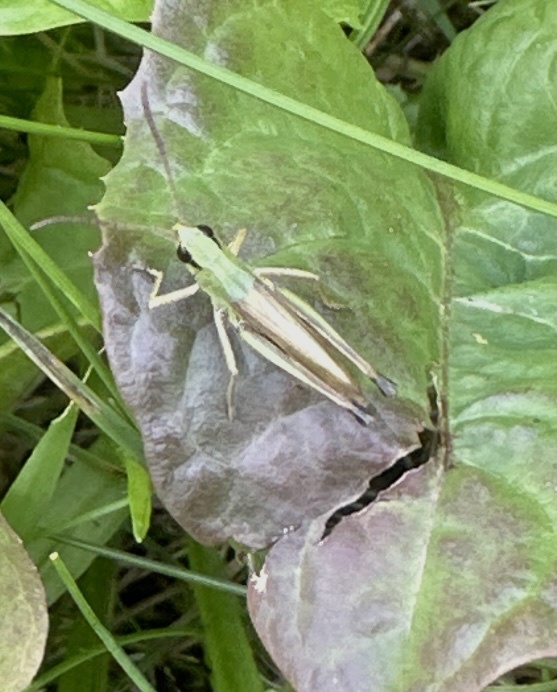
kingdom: Animalia
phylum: Arthropoda
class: Insecta
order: Orthoptera
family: Acrididae
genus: Pseudochorthippus
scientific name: Pseudochorthippus parallelus
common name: Meadow grasshopper
